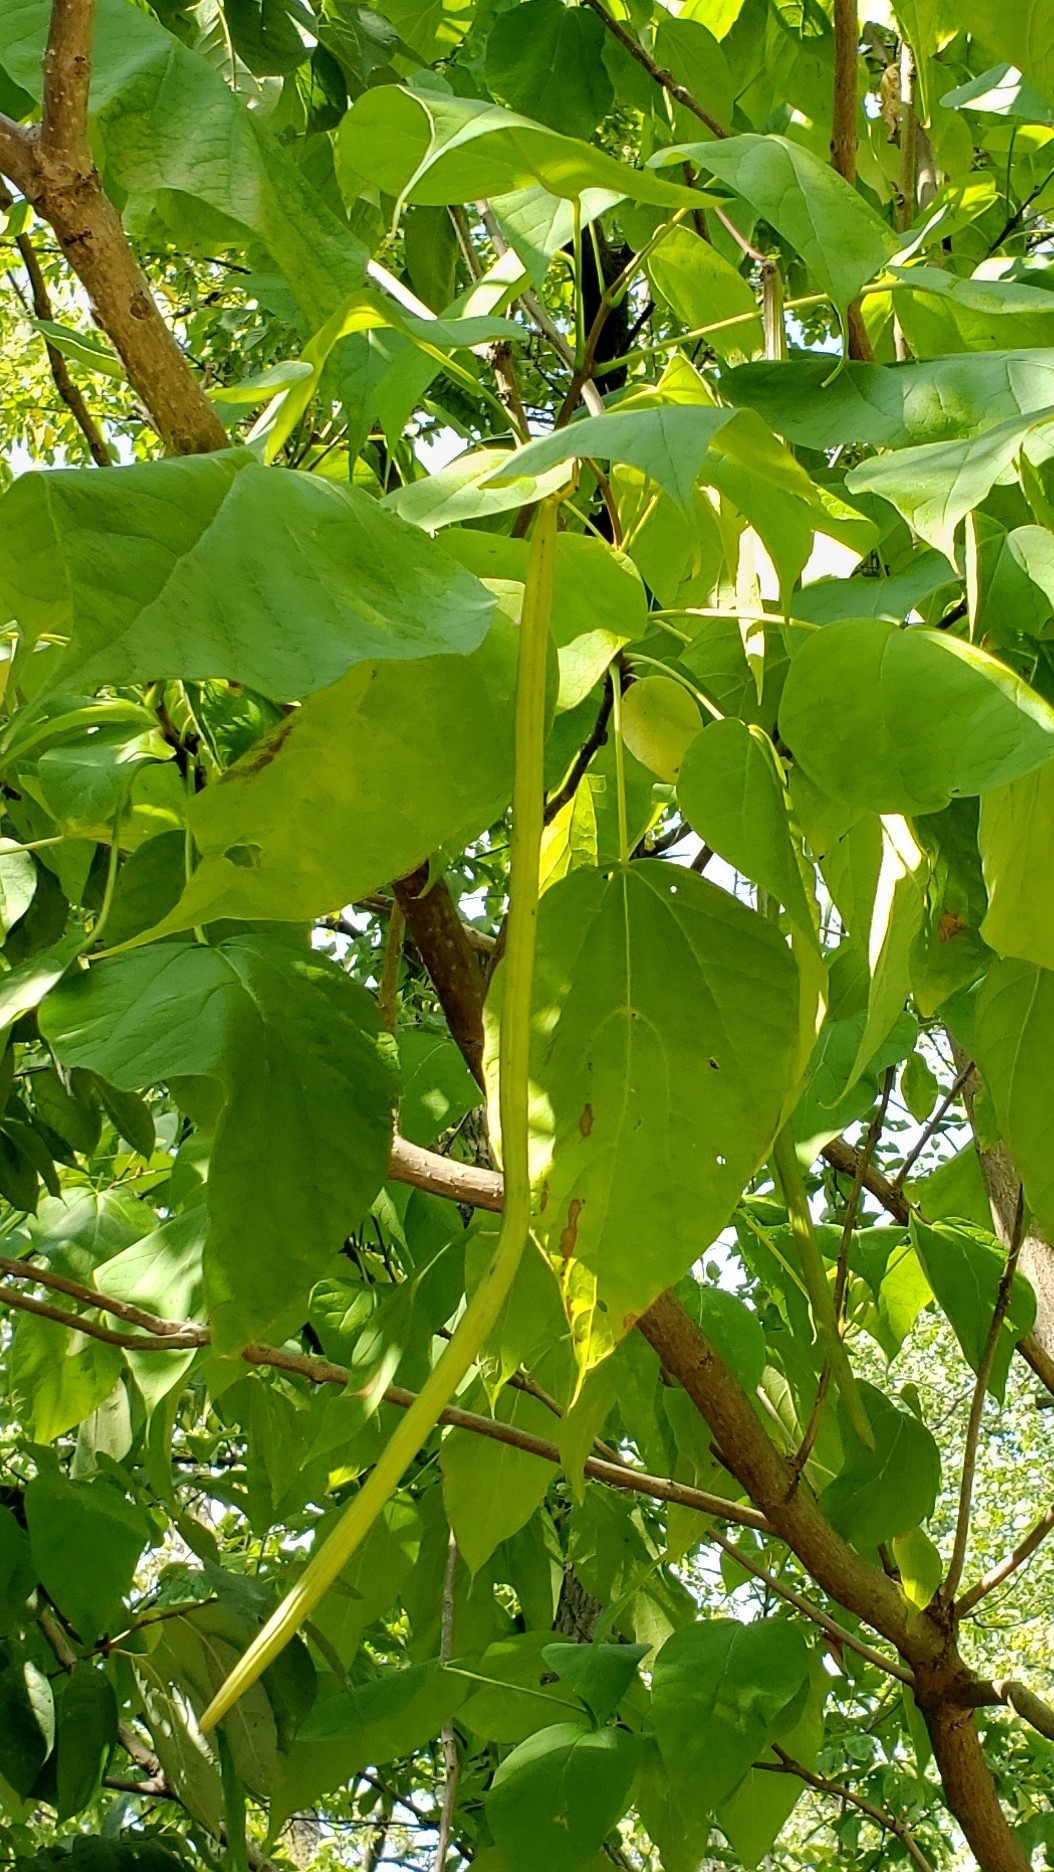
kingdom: Plantae
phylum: Tracheophyta
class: Magnoliopsida
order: Lamiales
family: Bignoniaceae
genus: Catalpa
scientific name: Catalpa speciosa
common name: Northern catalpa
